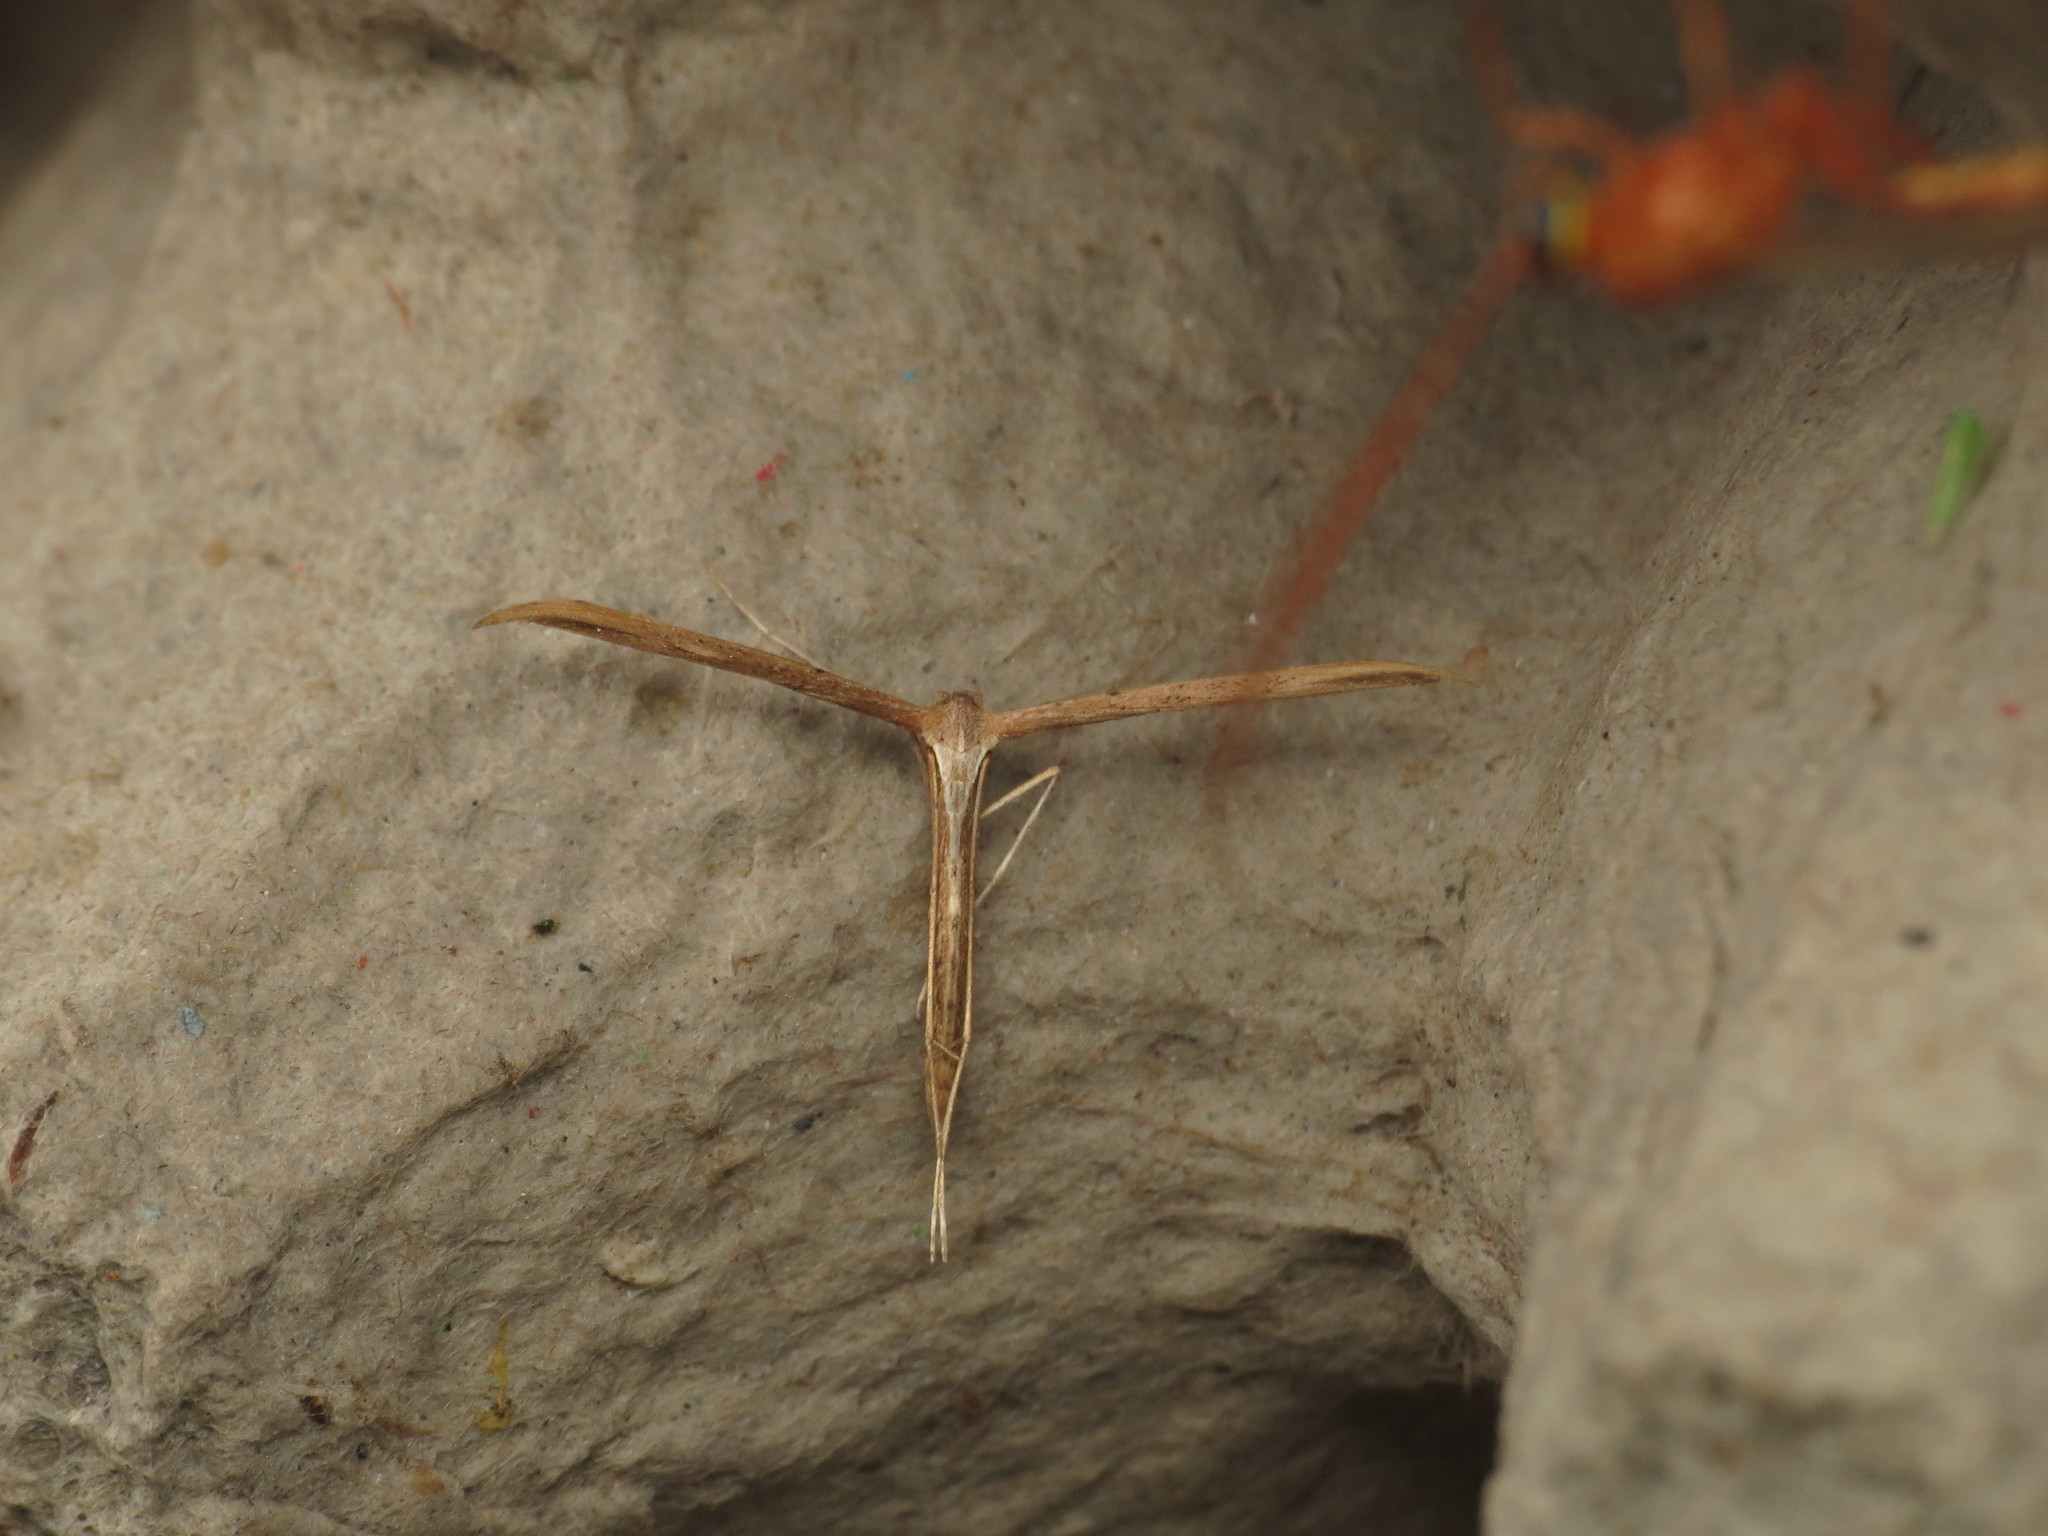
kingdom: Animalia
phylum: Arthropoda
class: Insecta
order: Lepidoptera
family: Pterophoridae
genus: Emmelina
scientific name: Emmelina monodactyla
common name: Common plume
